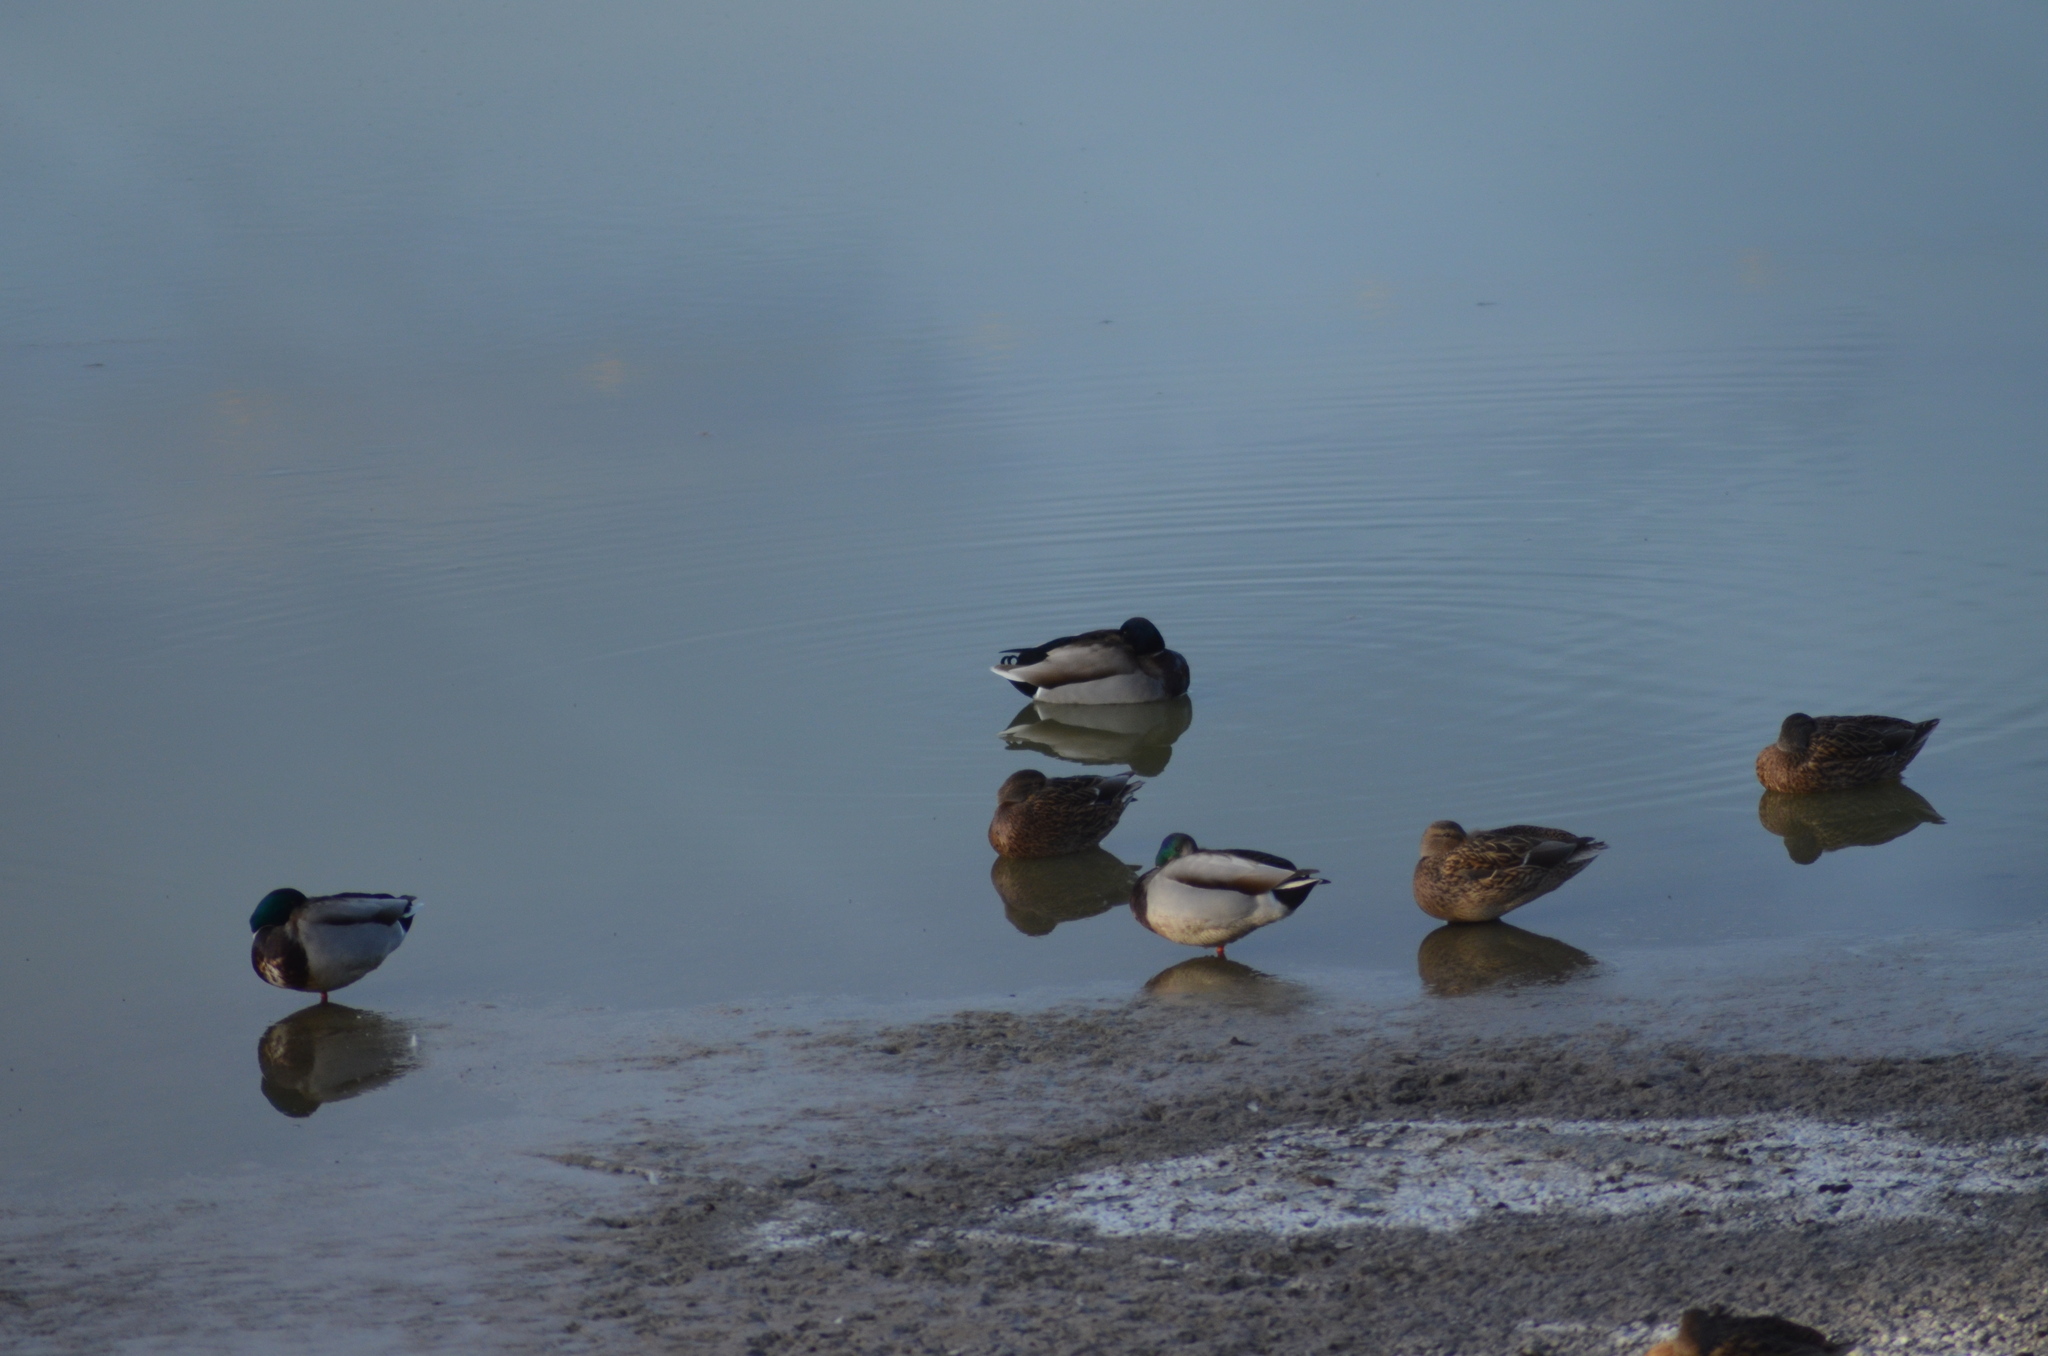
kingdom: Animalia
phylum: Chordata
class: Aves
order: Anseriformes
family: Anatidae
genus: Anas
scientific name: Anas platyrhynchos
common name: Mallard
